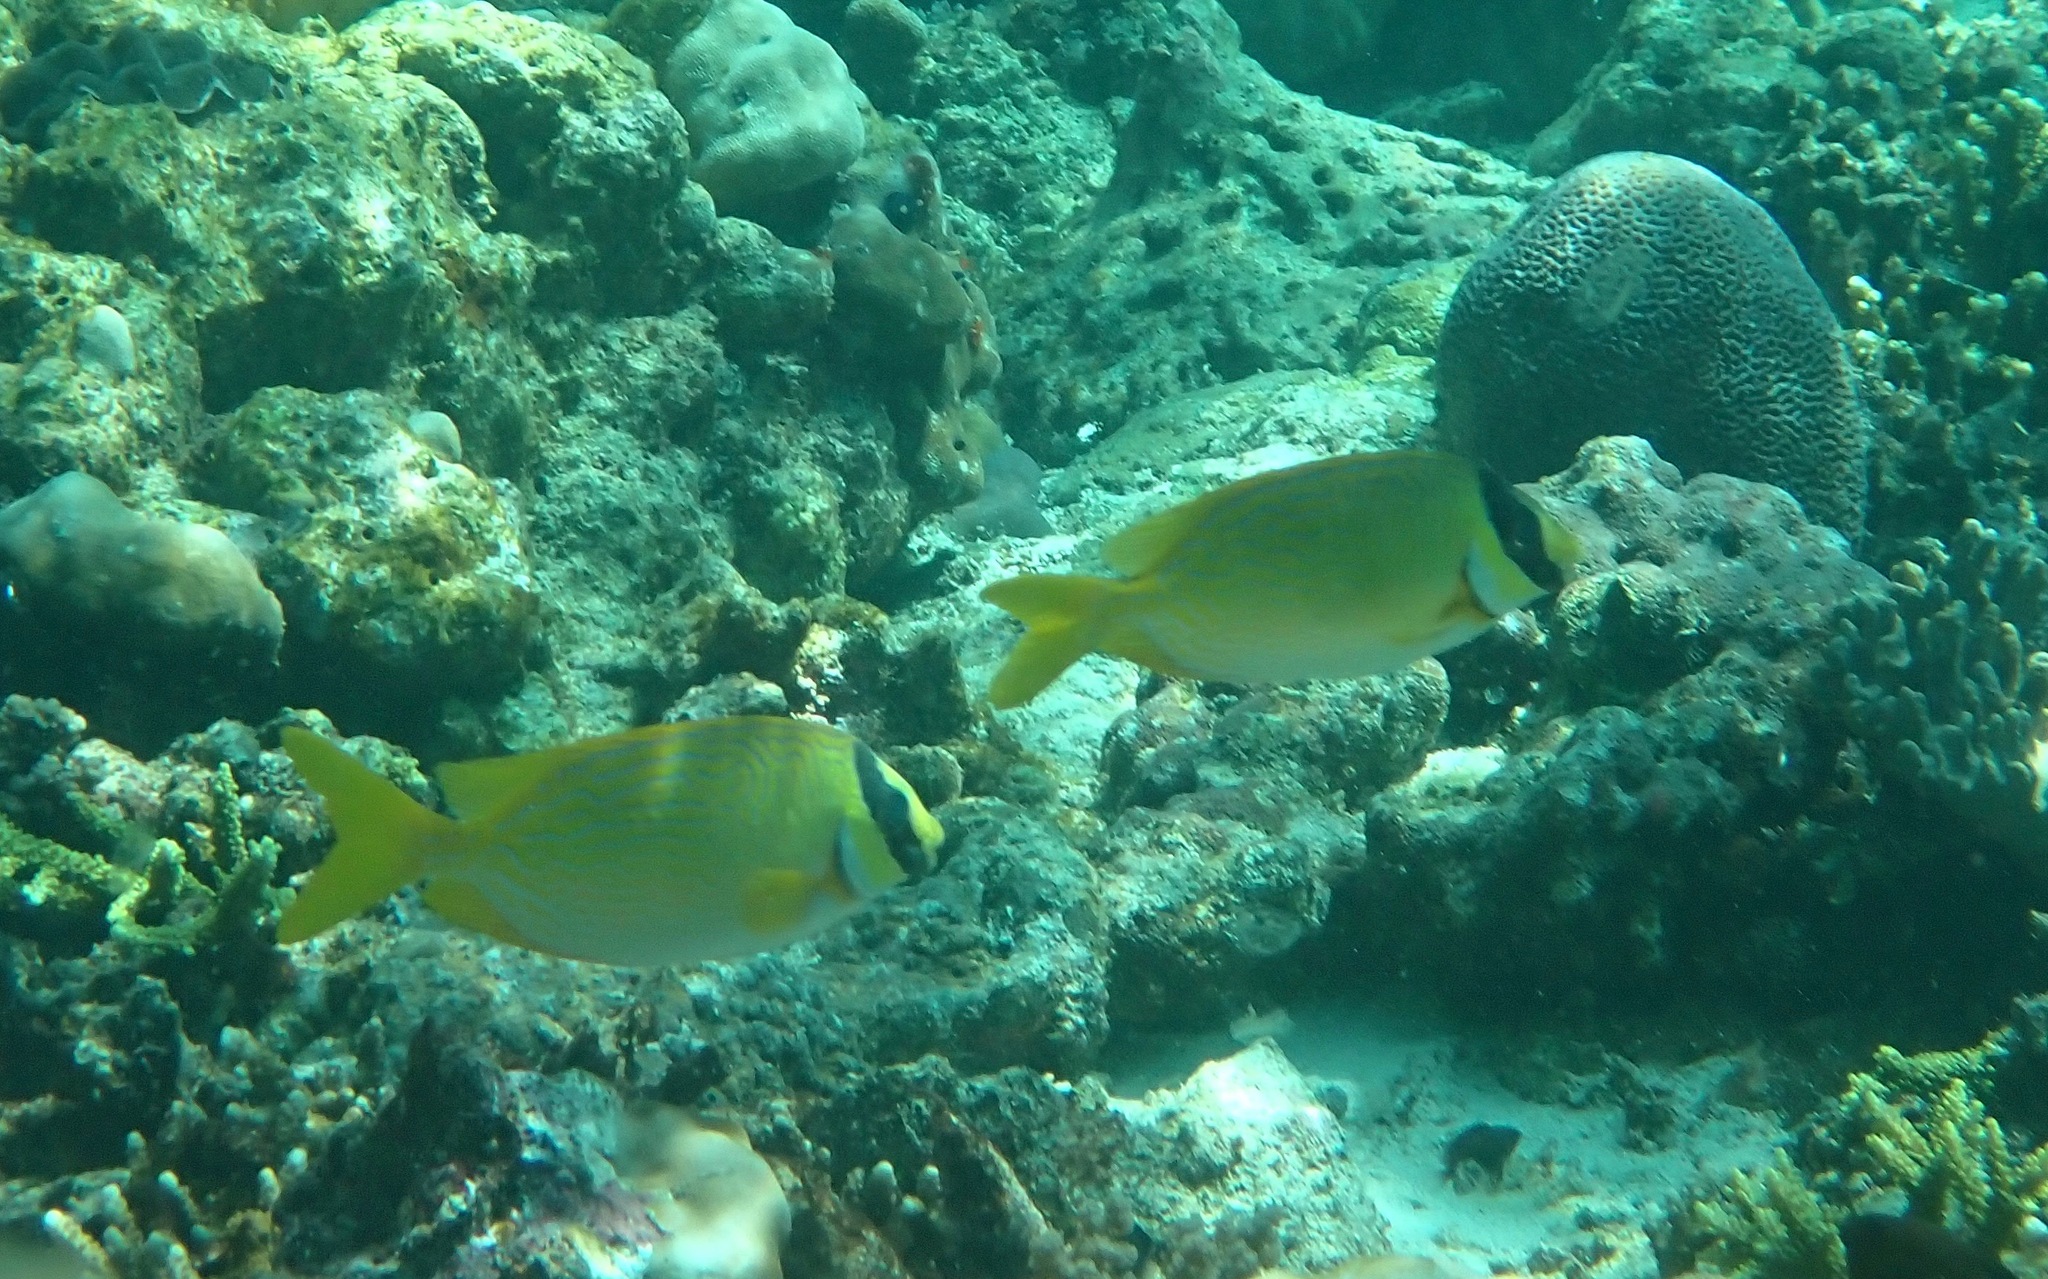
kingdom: Animalia
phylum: Chordata
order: Perciformes
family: Siganidae
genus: Siganus
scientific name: Siganus puellus
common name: Masked rabbitfish
